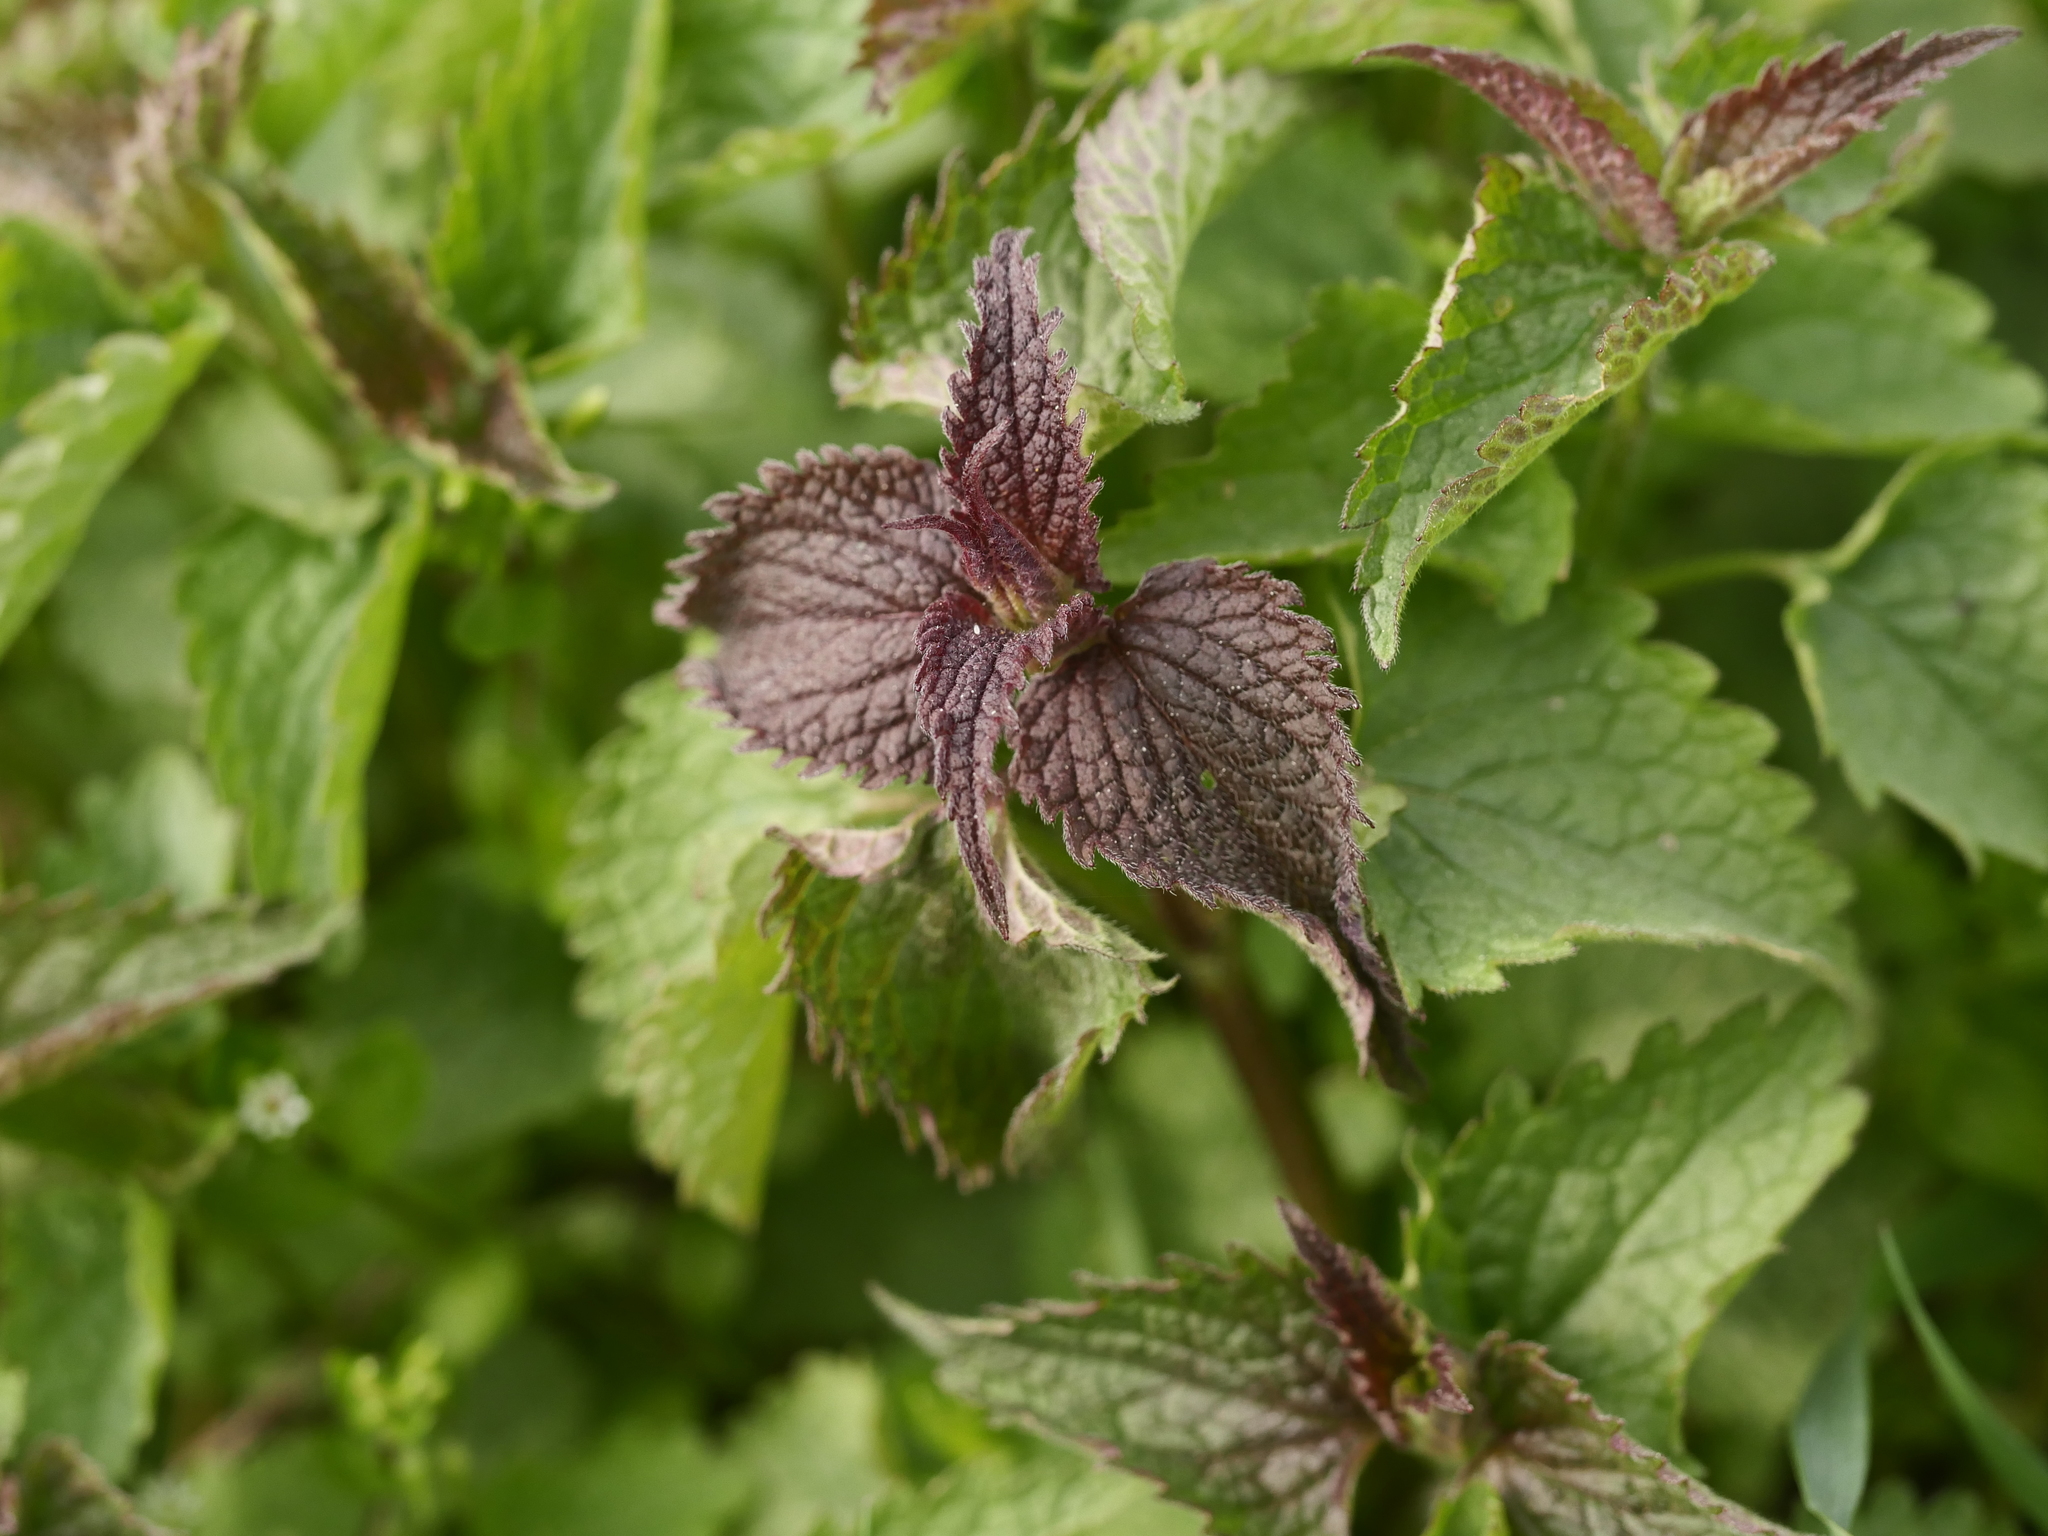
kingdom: Plantae
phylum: Tracheophyta
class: Magnoliopsida
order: Lamiales
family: Lamiaceae
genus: Lamium
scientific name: Lamium album
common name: White dead-nettle
